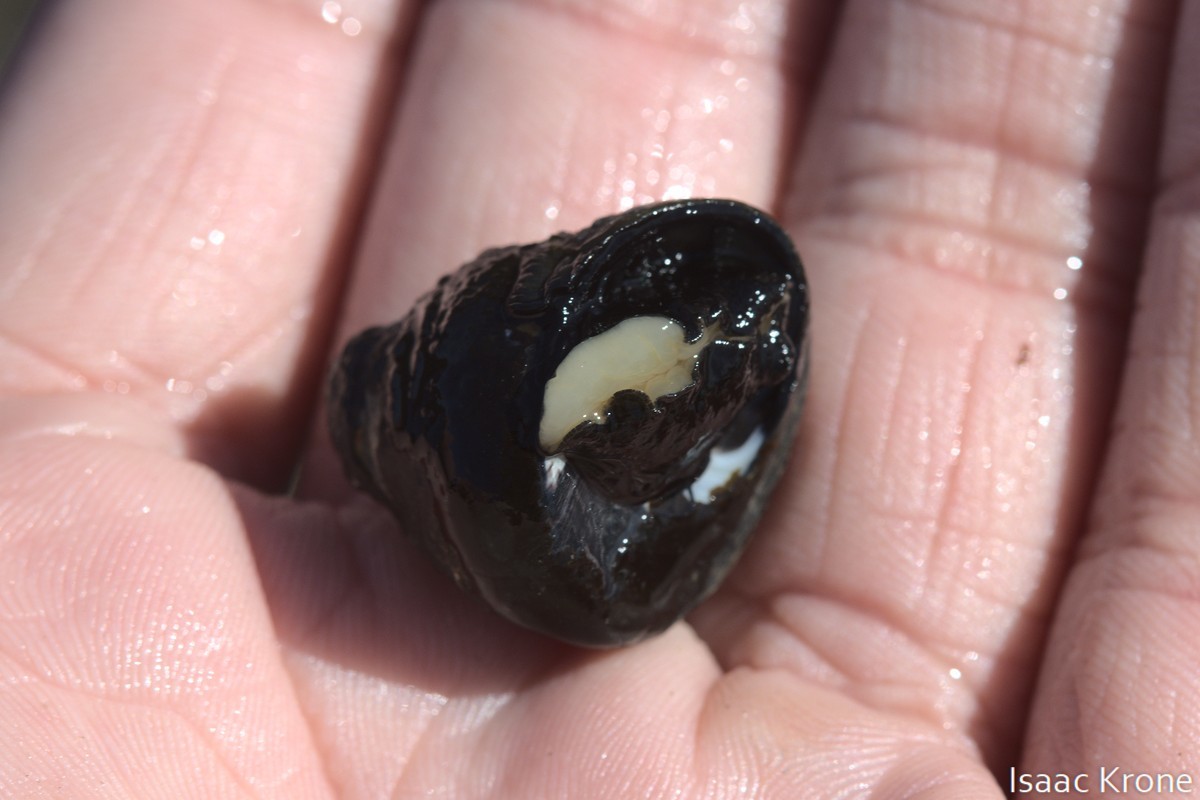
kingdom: Animalia
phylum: Mollusca
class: Gastropoda
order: Trochida
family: Tegulidae
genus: Tegula
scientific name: Tegula funebralis
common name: Black tegula
